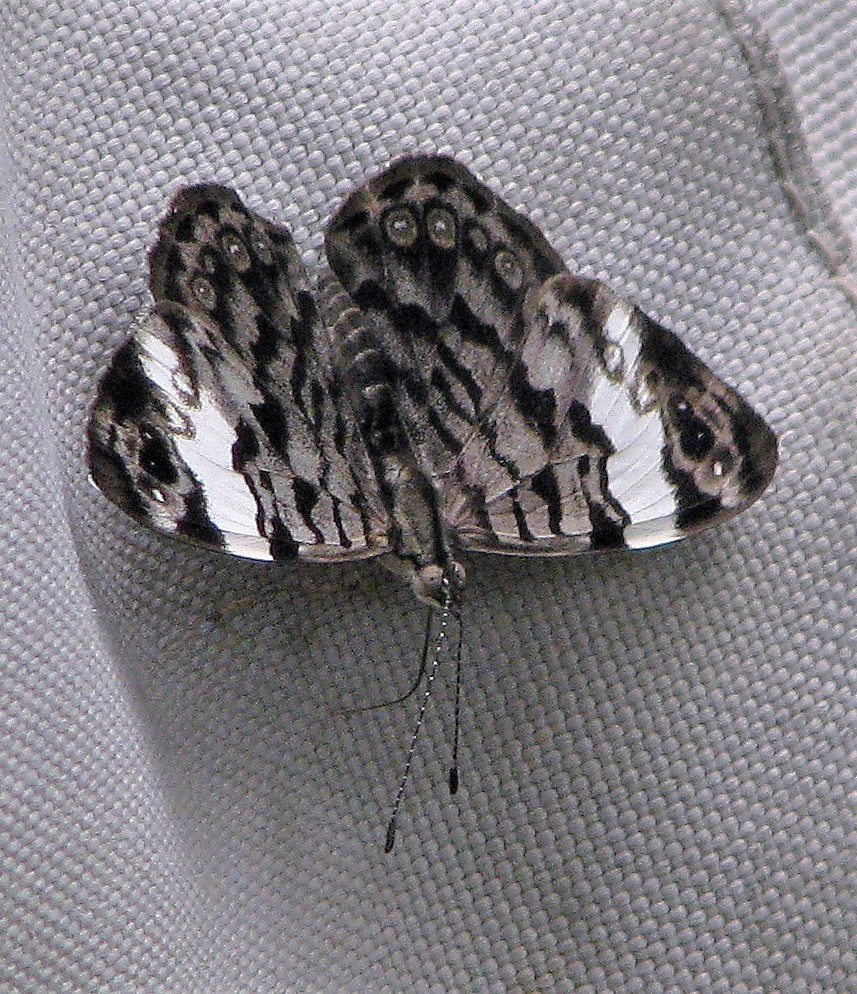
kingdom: Animalia
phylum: Arthropoda
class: Insecta
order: Lepidoptera
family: Nymphalidae
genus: Ectima
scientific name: Ectima thecla
